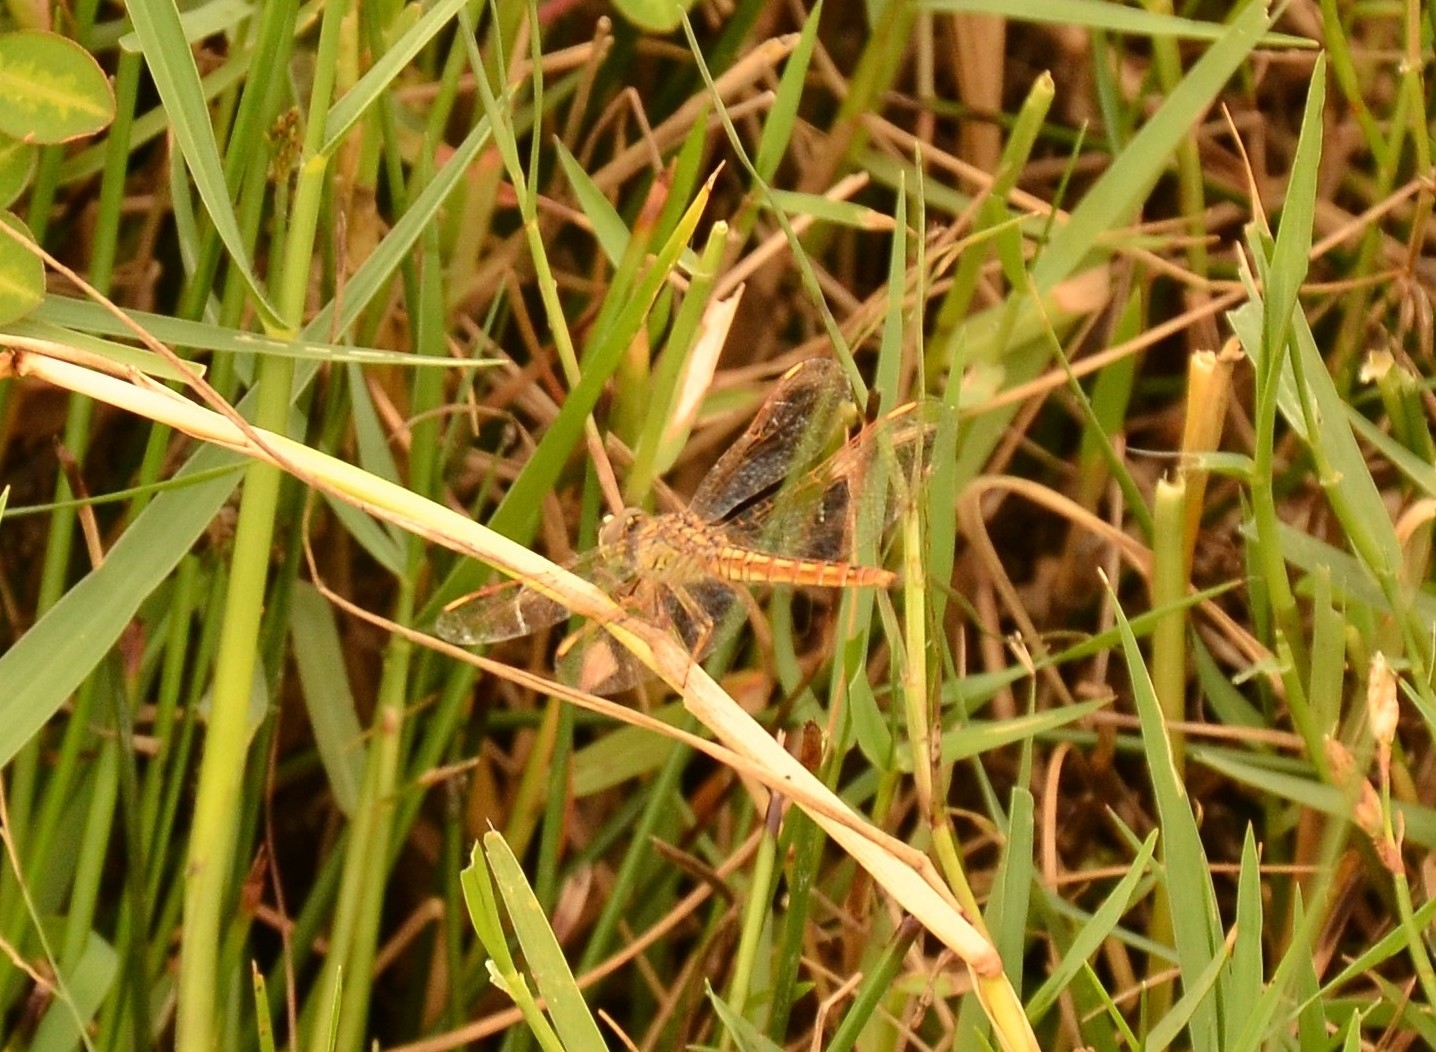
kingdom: Animalia
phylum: Arthropoda
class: Insecta
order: Odonata
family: Libellulidae
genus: Brachythemis
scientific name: Brachythemis contaminata
